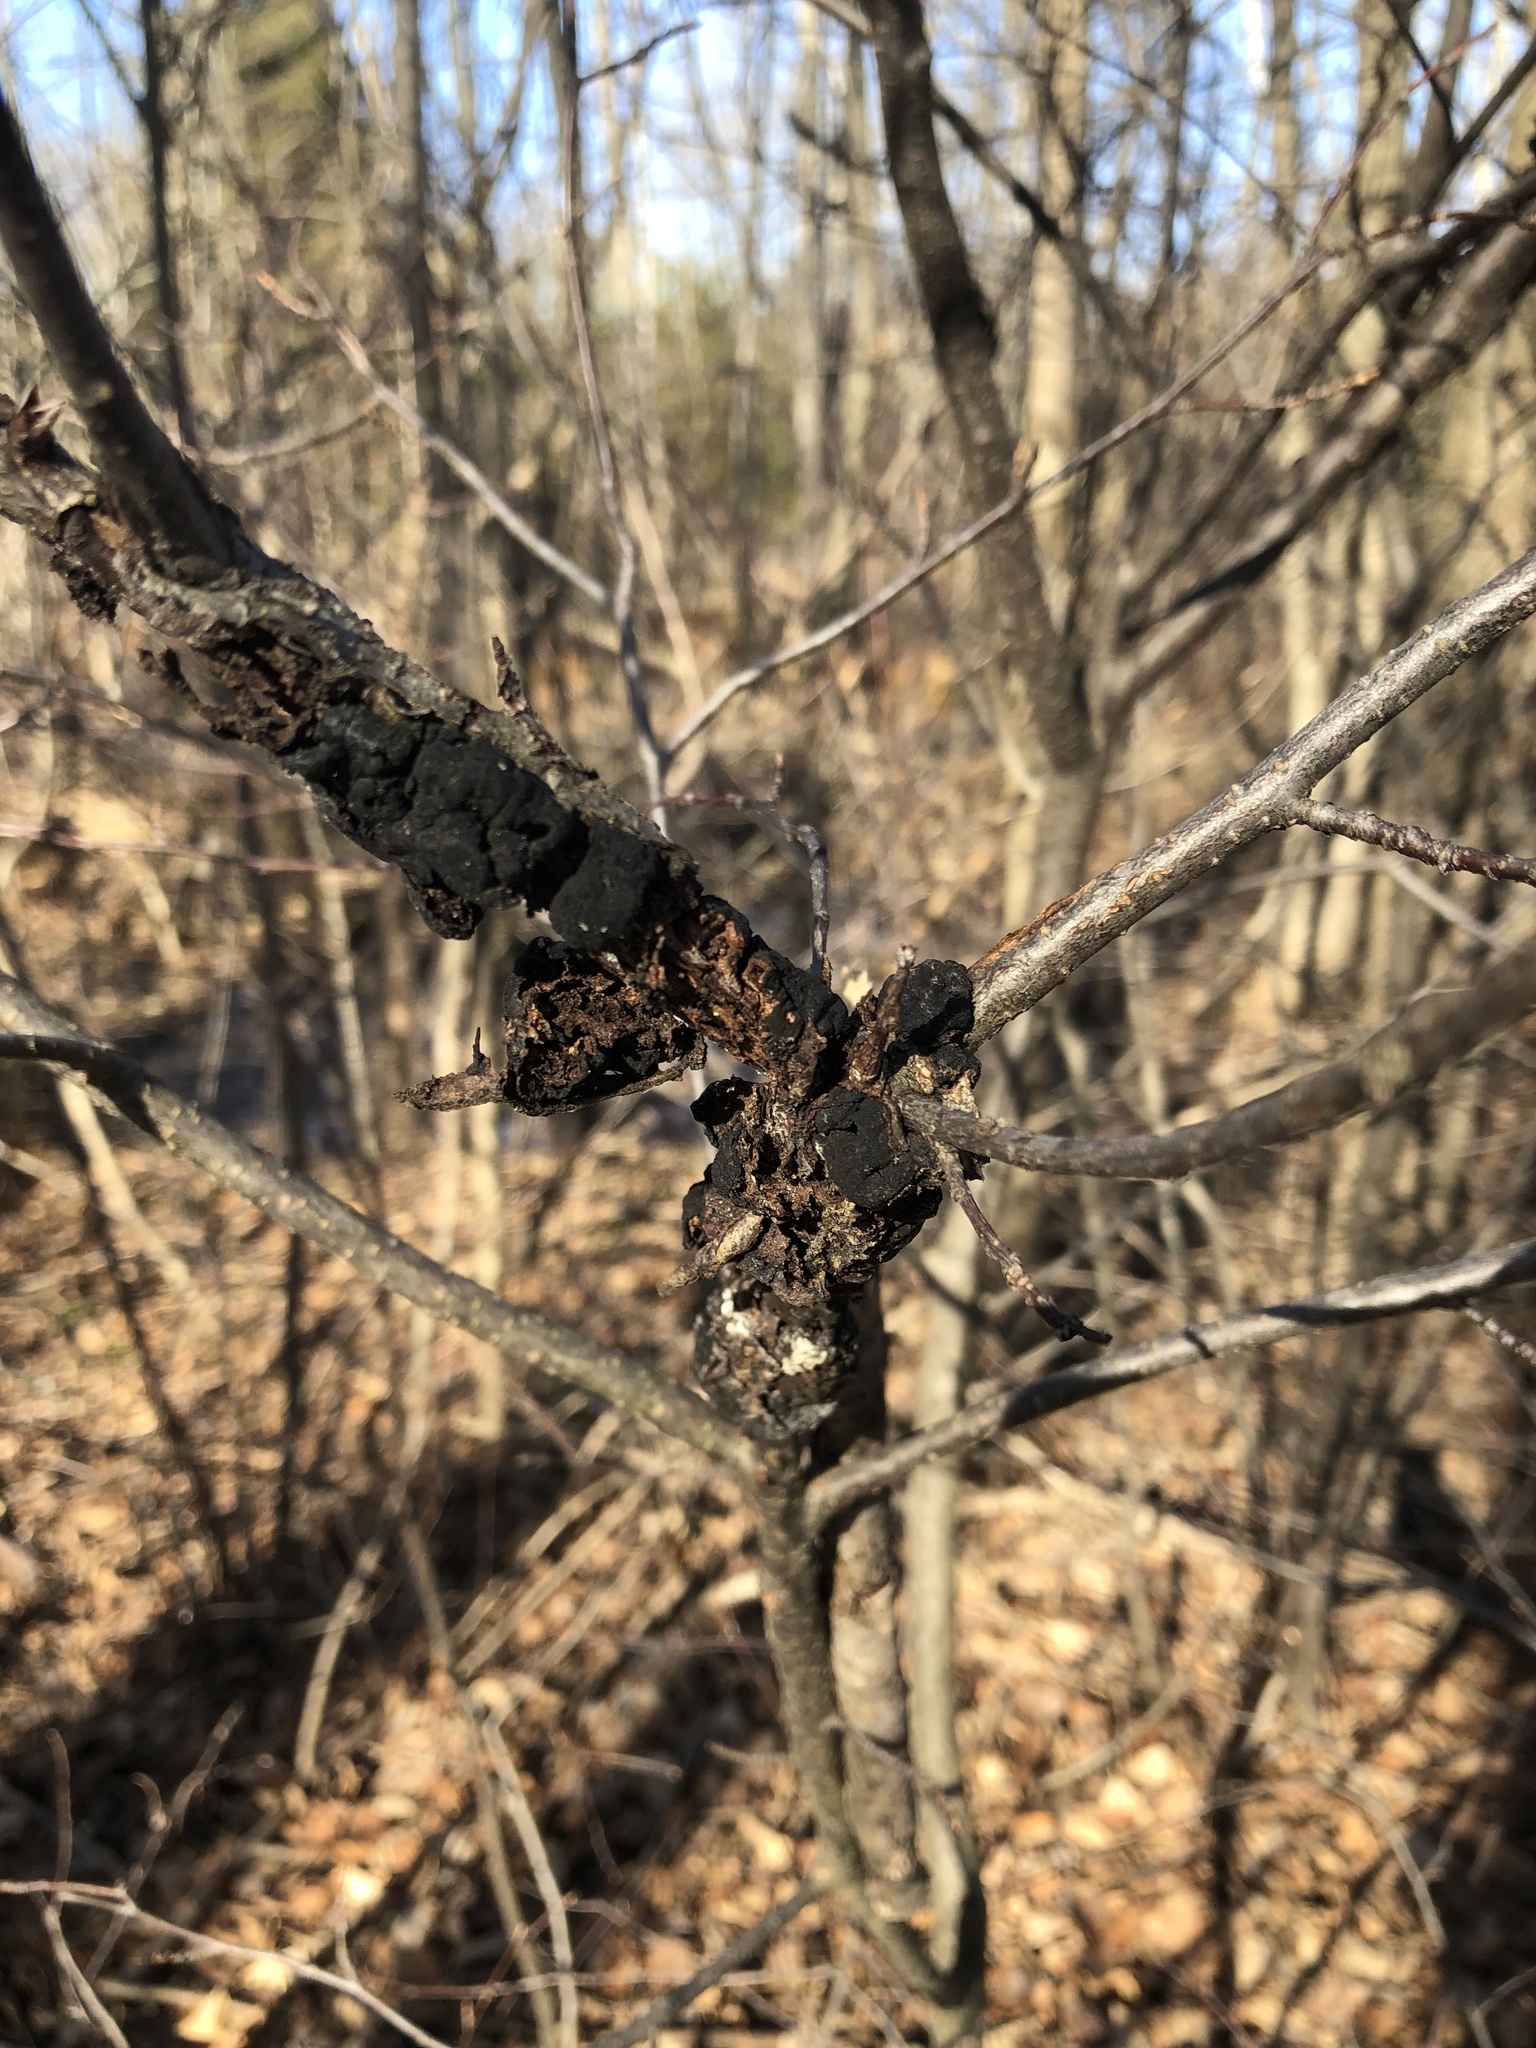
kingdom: Fungi
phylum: Ascomycota
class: Dothideomycetes
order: Venturiales
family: Venturiaceae
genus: Apiosporina
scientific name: Apiosporina morbosa
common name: Black knot
